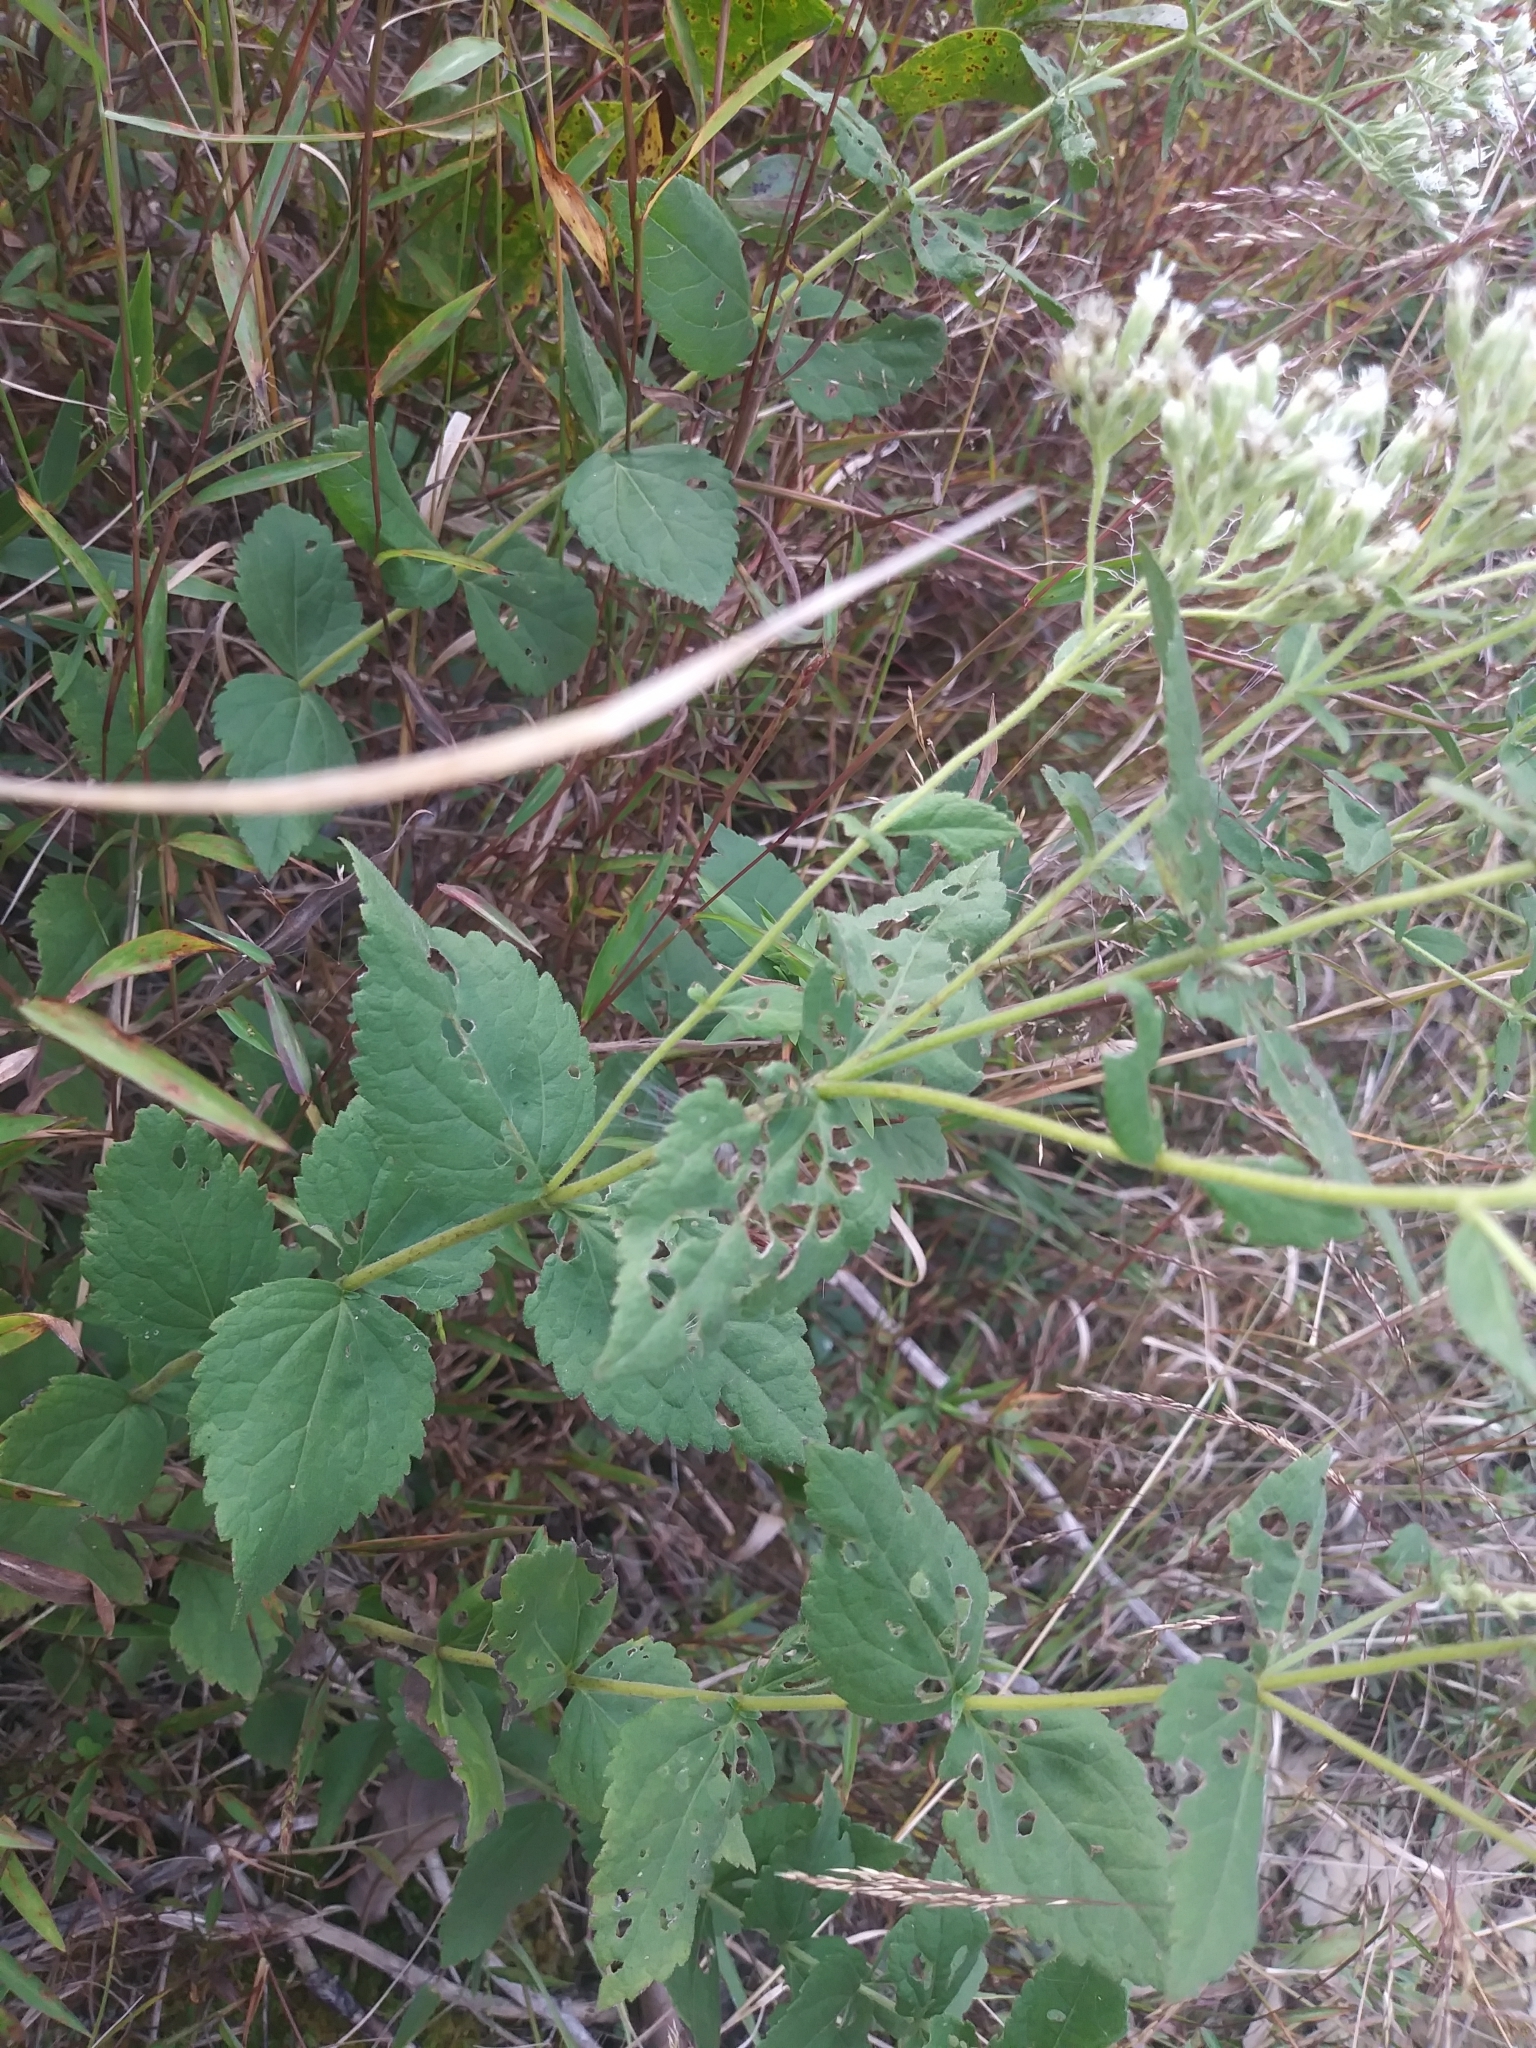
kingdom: Plantae
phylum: Tracheophyta
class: Magnoliopsida
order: Asterales
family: Asteraceae
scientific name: Asteraceae
